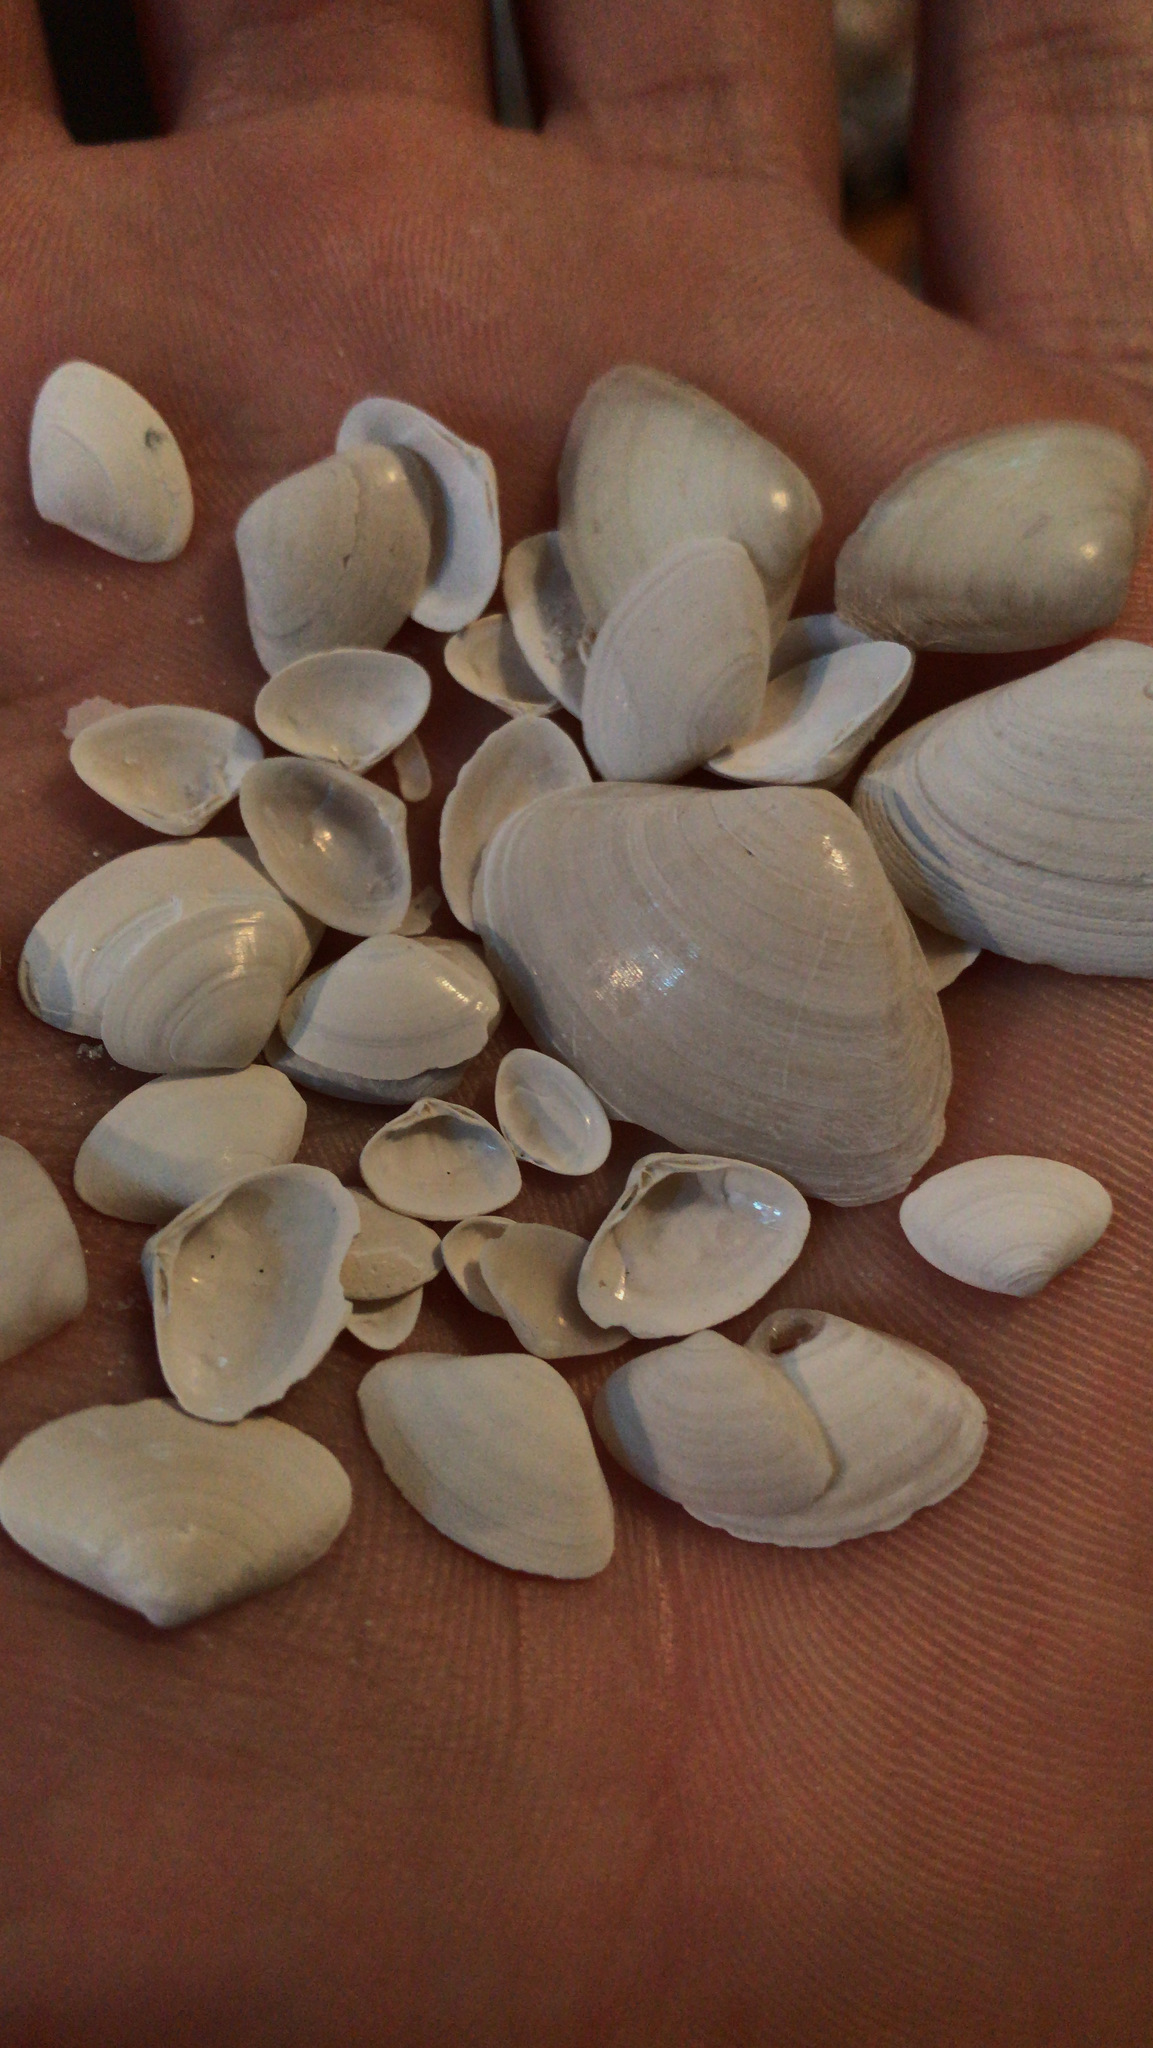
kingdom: Animalia
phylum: Mollusca
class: Bivalvia
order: Venerida
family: Mactridae
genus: Spisula
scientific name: Spisula raveneli
